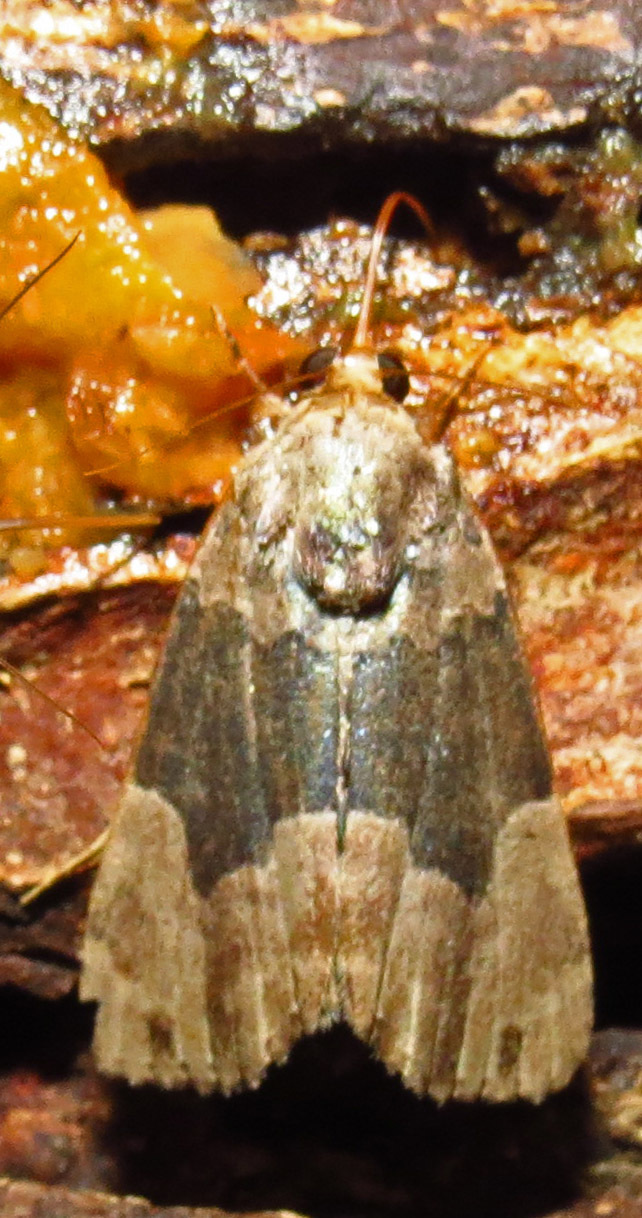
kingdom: Animalia
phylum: Arthropoda
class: Insecta
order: Lepidoptera
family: Erebidae
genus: Dinumma
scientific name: Dinumma deponens
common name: Purplish moth
